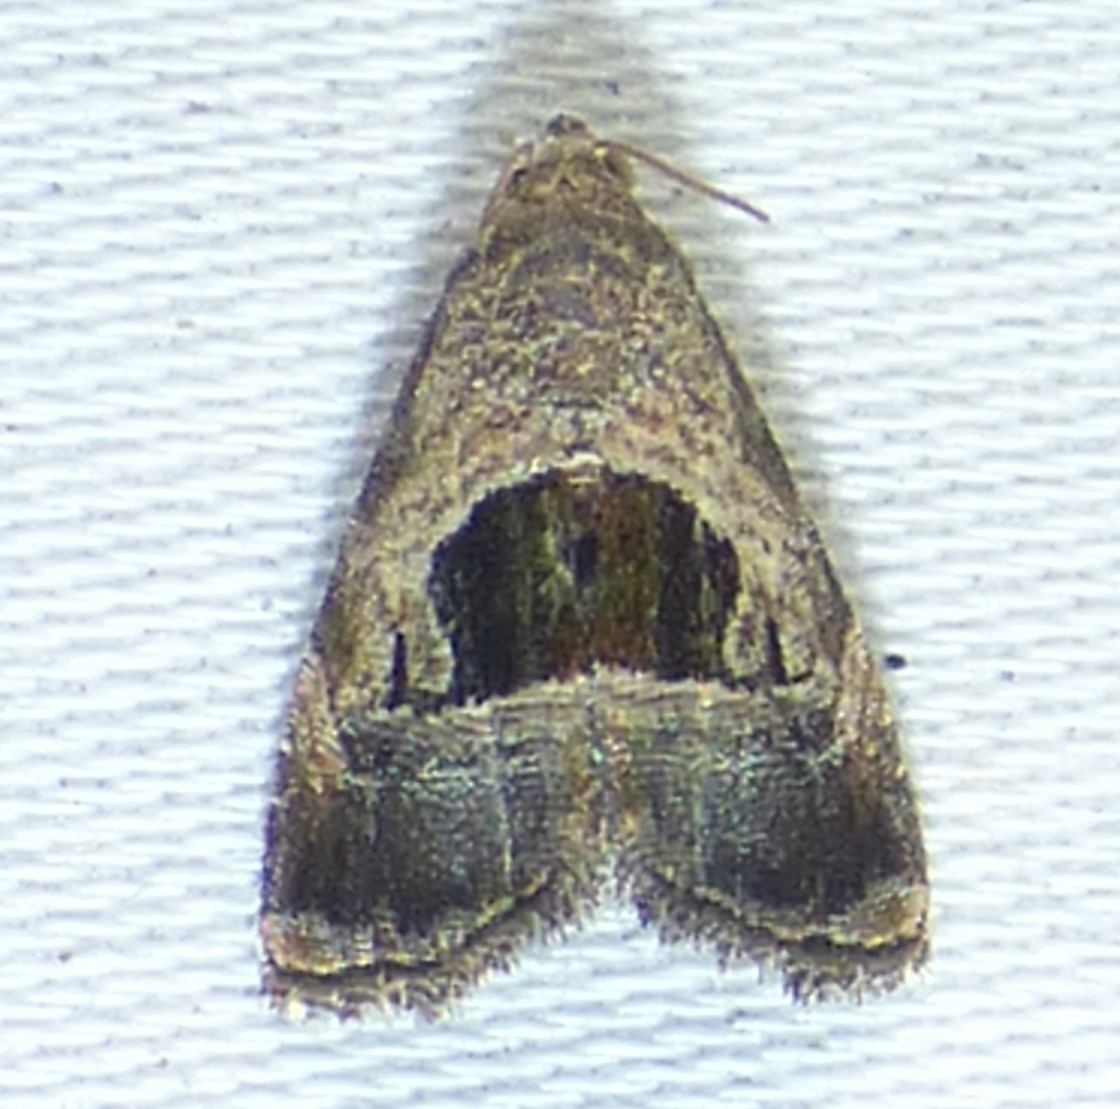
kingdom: Animalia
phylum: Arthropoda
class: Insecta
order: Lepidoptera
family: Noctuidae
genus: Tripudia
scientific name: Tripudia rectangula
